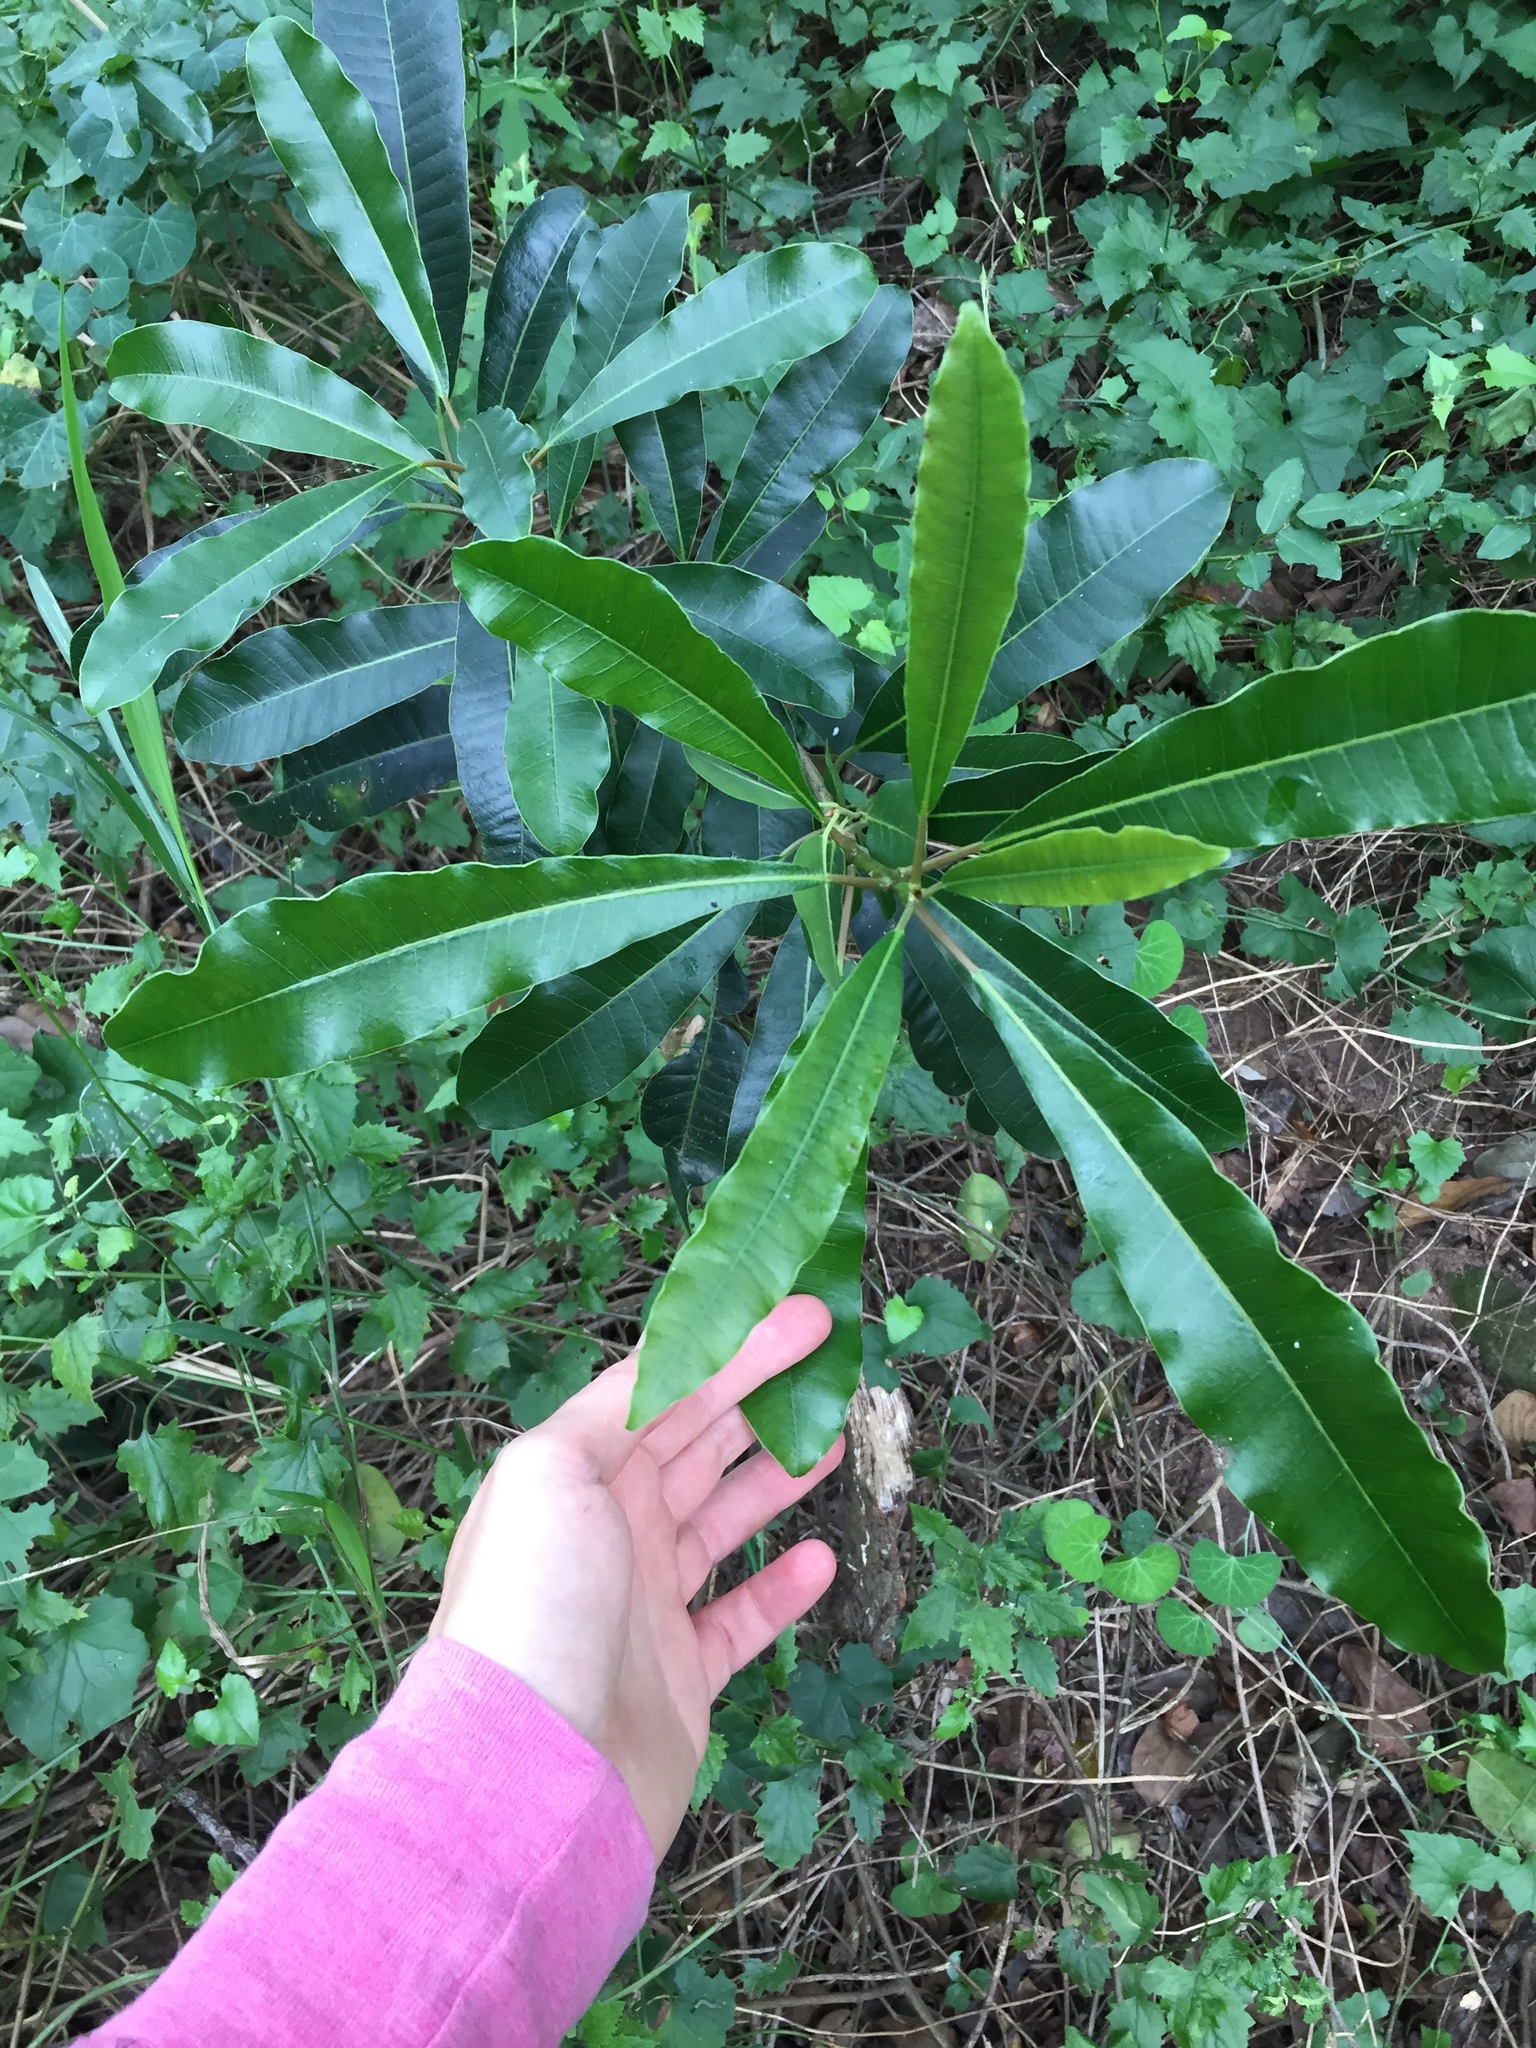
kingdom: Plantae
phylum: Tracheophyta
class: Magnoliopsida
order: Sapindales
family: Anacardiaceae
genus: Protorhus
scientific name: Protorhus longifolia
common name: Red-beech
